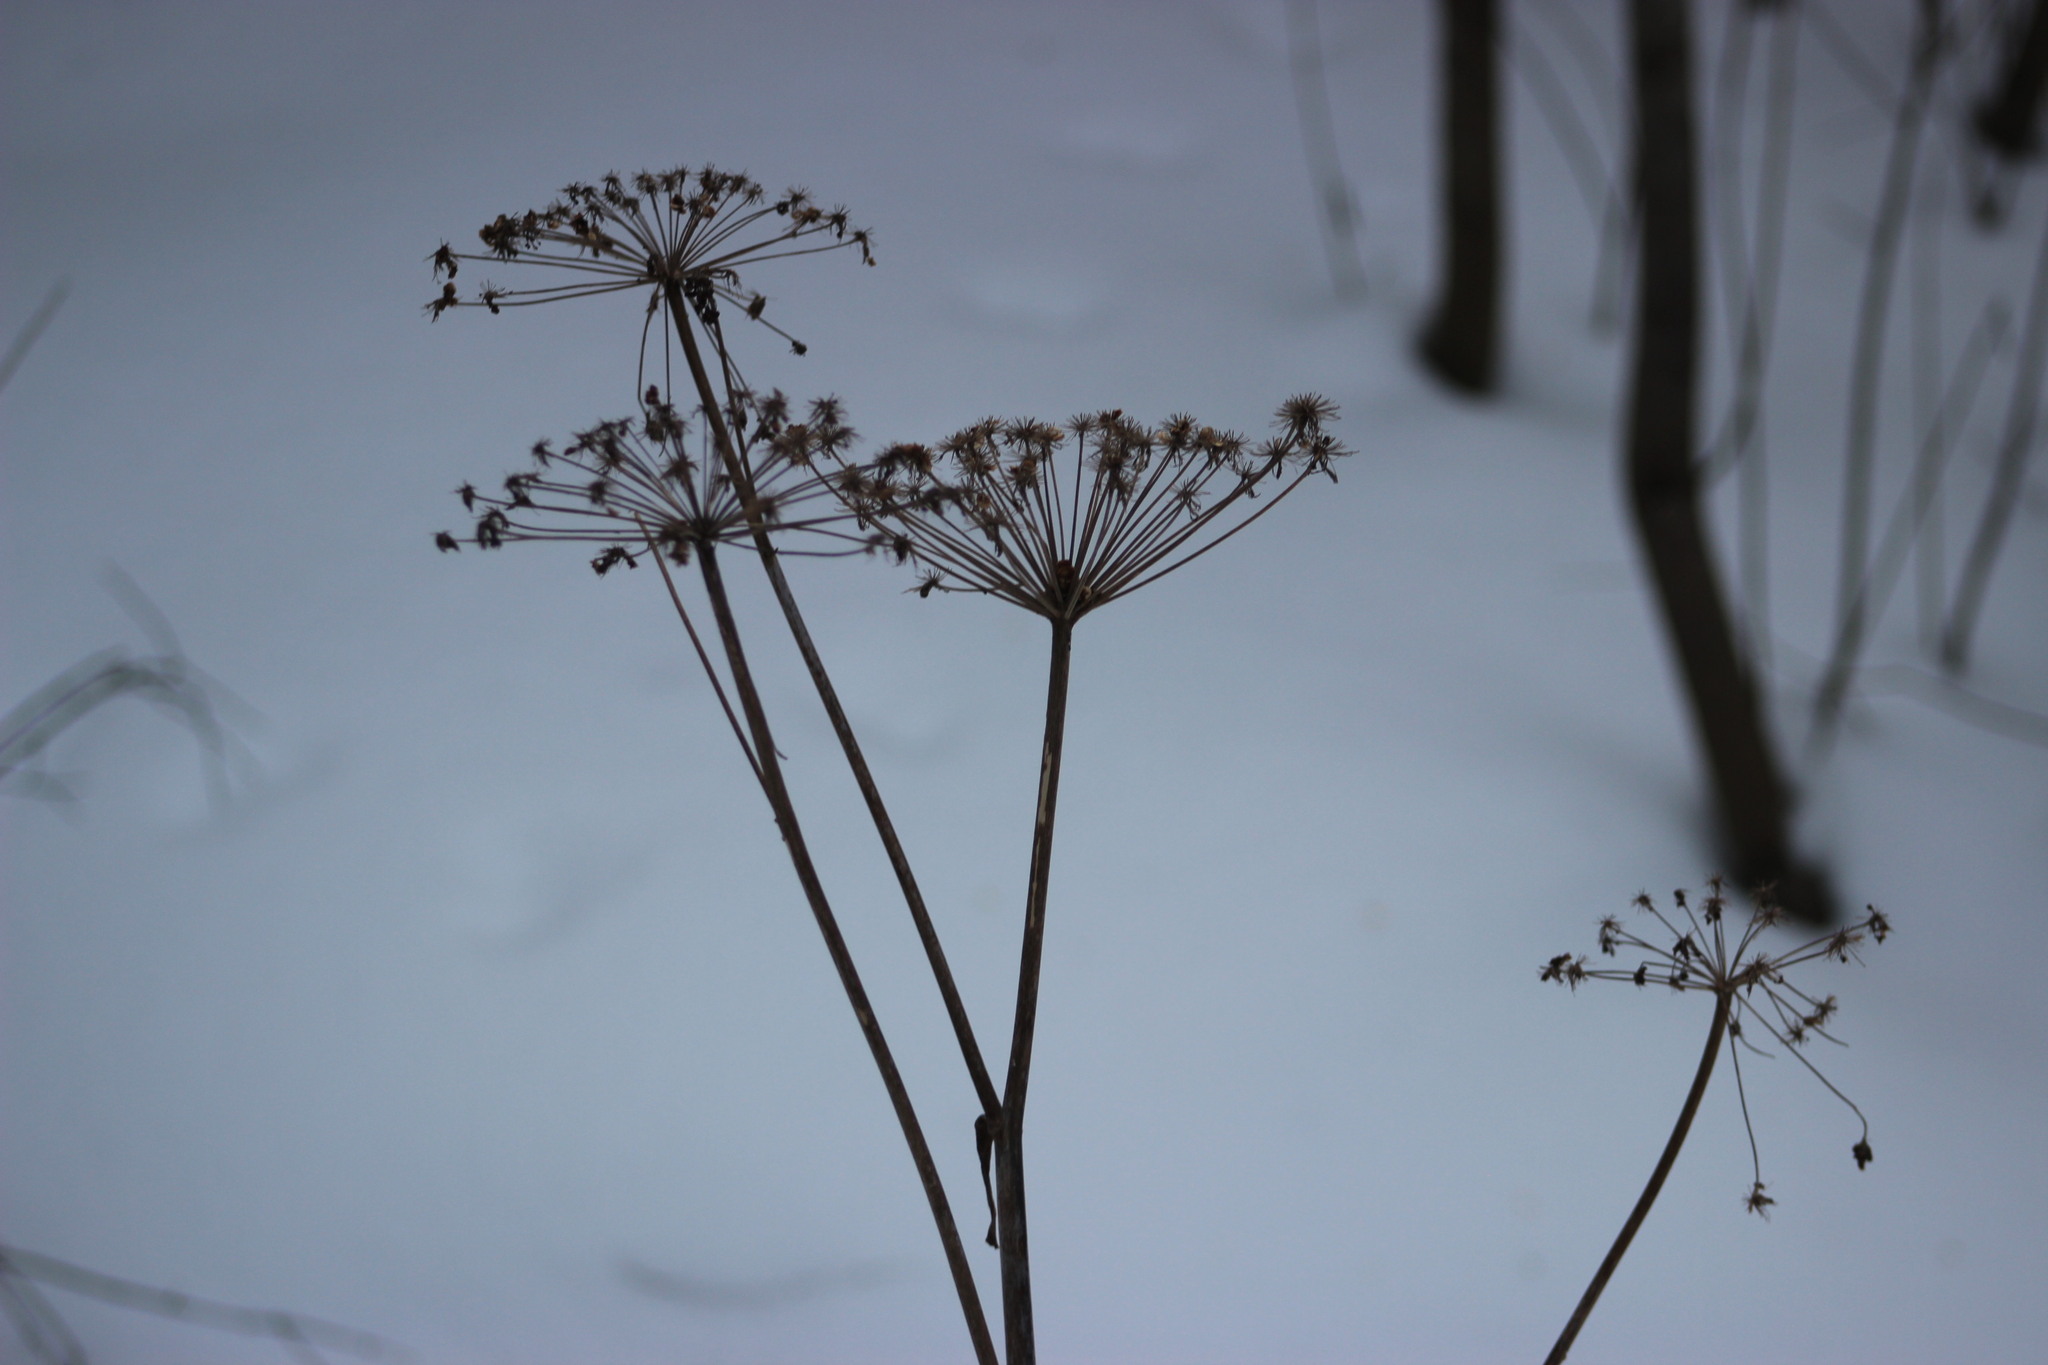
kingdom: Plantae
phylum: Tracheophyta
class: Magnoliopsida
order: Apiales
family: Apiaceae
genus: Angelica
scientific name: Angelica sylvestris
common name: Wild angelica
